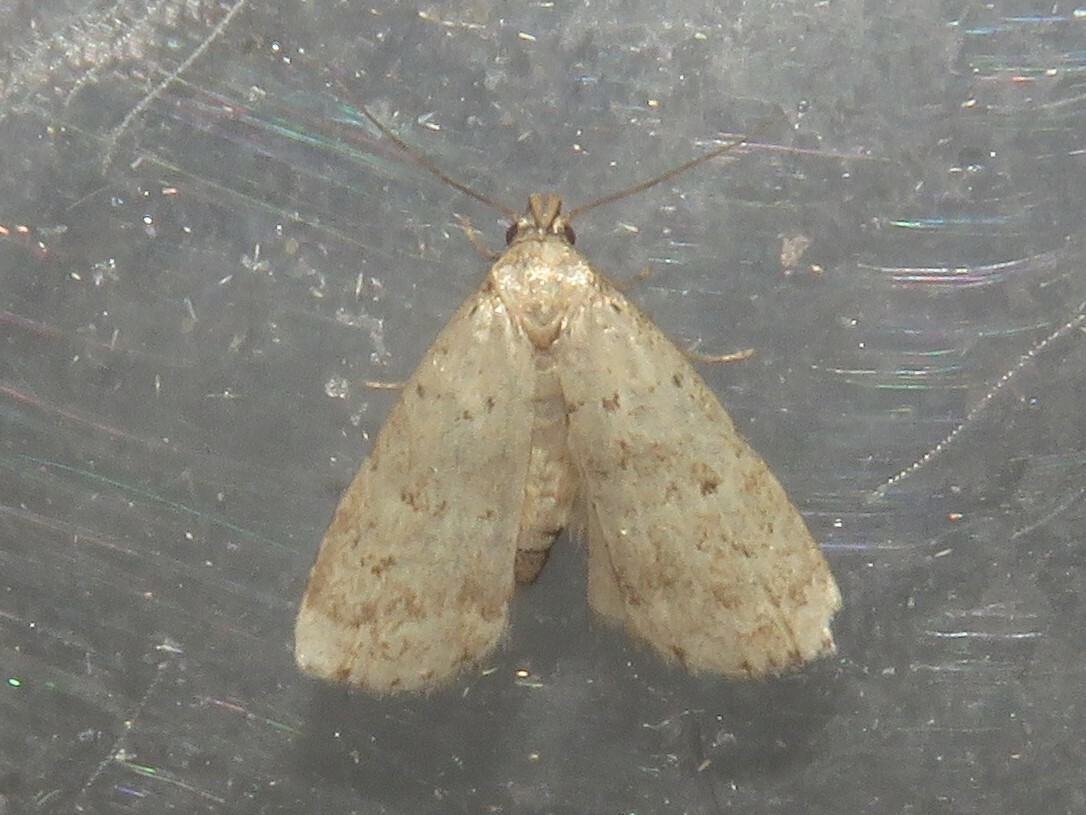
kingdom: Animalia
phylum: Arthropoda
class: Insecta
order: Lepidoptera
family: Erebidae
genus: Hypenodes
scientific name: Hypenodes fractilinea
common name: Broken-line hypenodes moth
